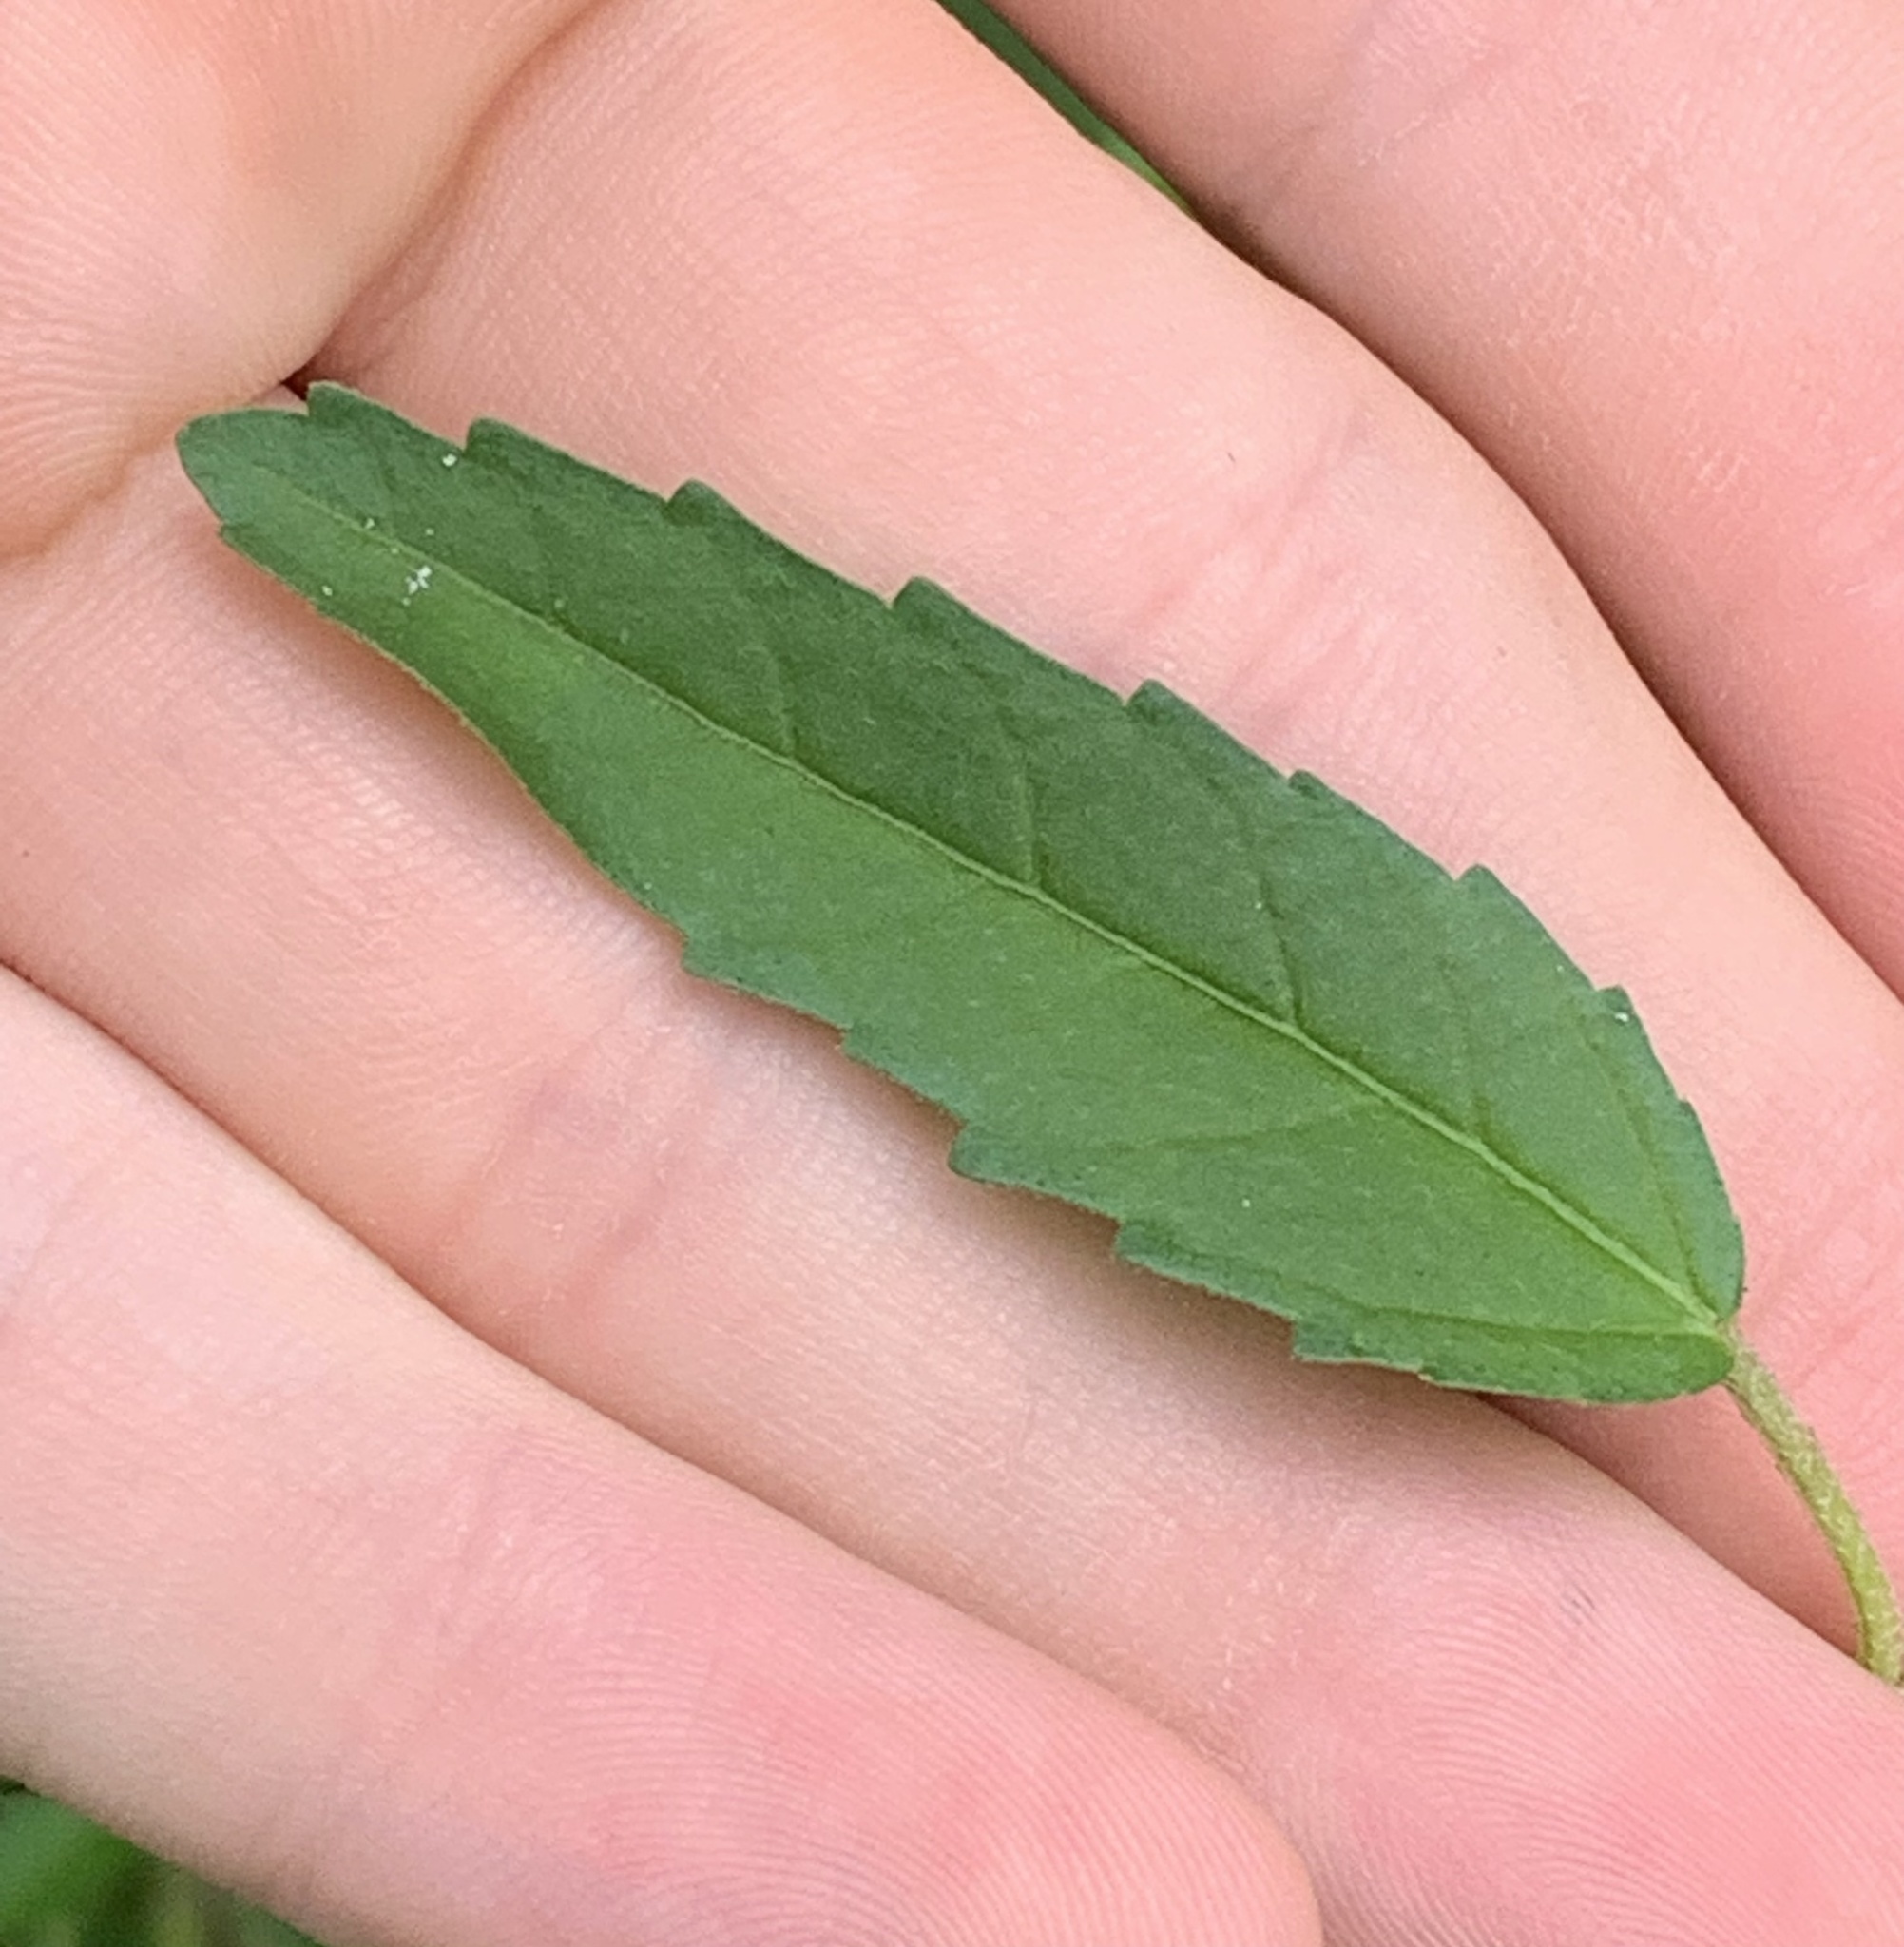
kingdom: Plantae
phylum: Tracheophyta
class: Magnoliopsida
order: Malpighiales
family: Euphorbiaceae
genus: Croton
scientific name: Croton glandulosus
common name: Tropic croton
